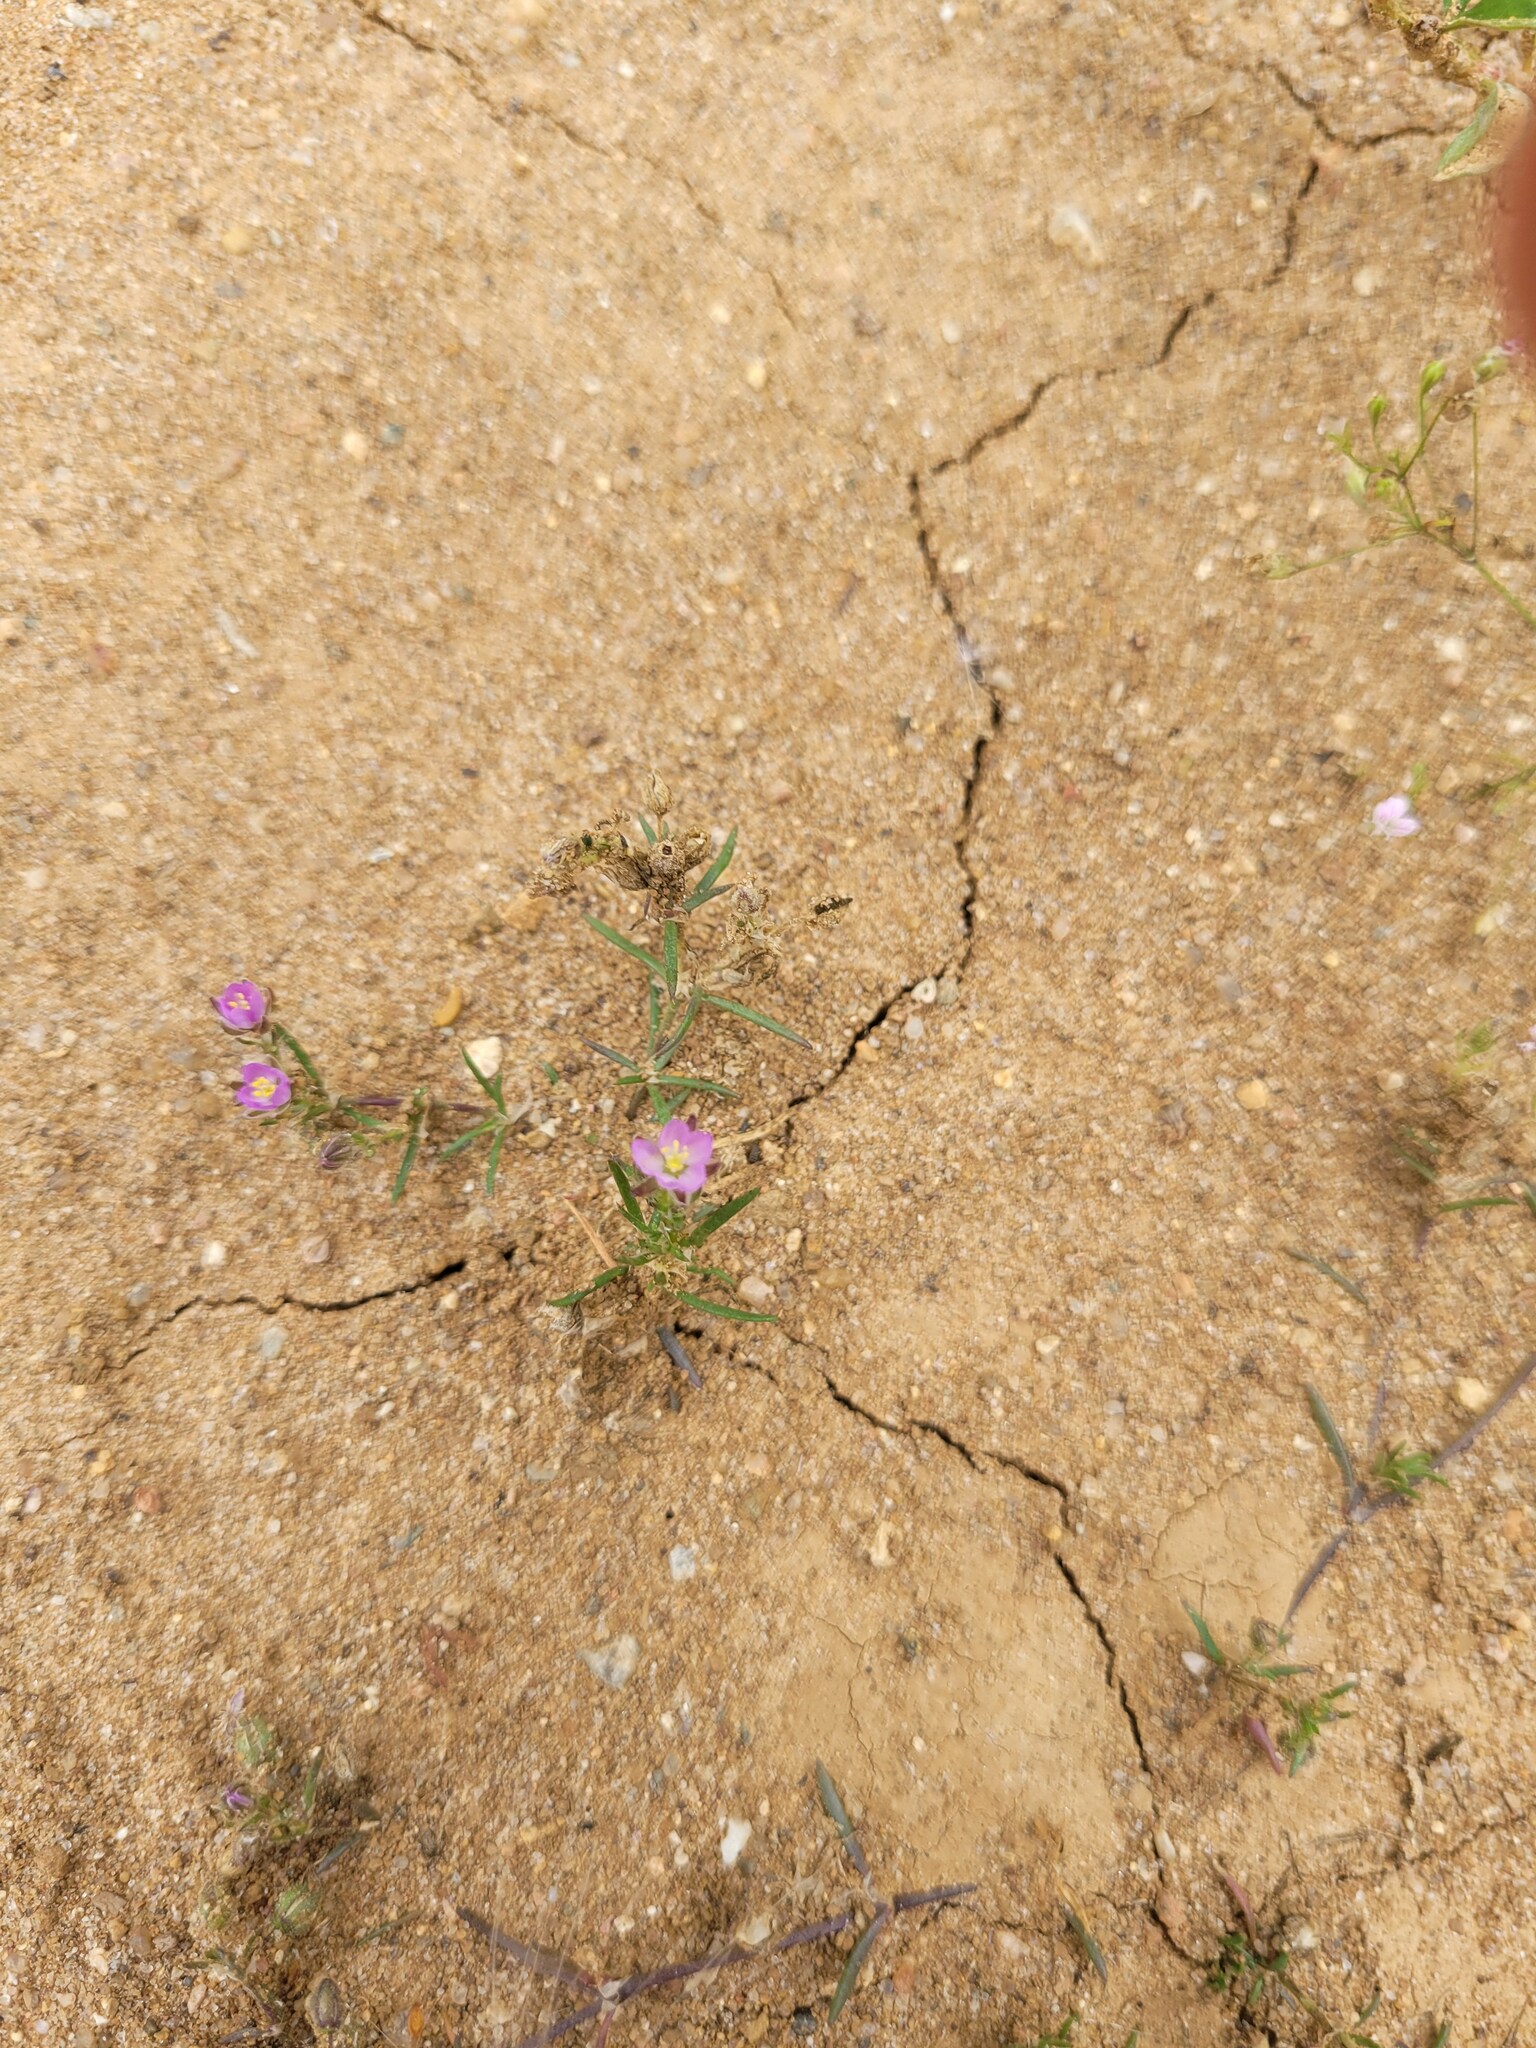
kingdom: Plantae
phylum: Tracheophyta
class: Magnoliopsida
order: Caryophyllales
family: Caryophyllaceae
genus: Spergularia
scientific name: Spergularia rubra
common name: Red sand-spurrey
